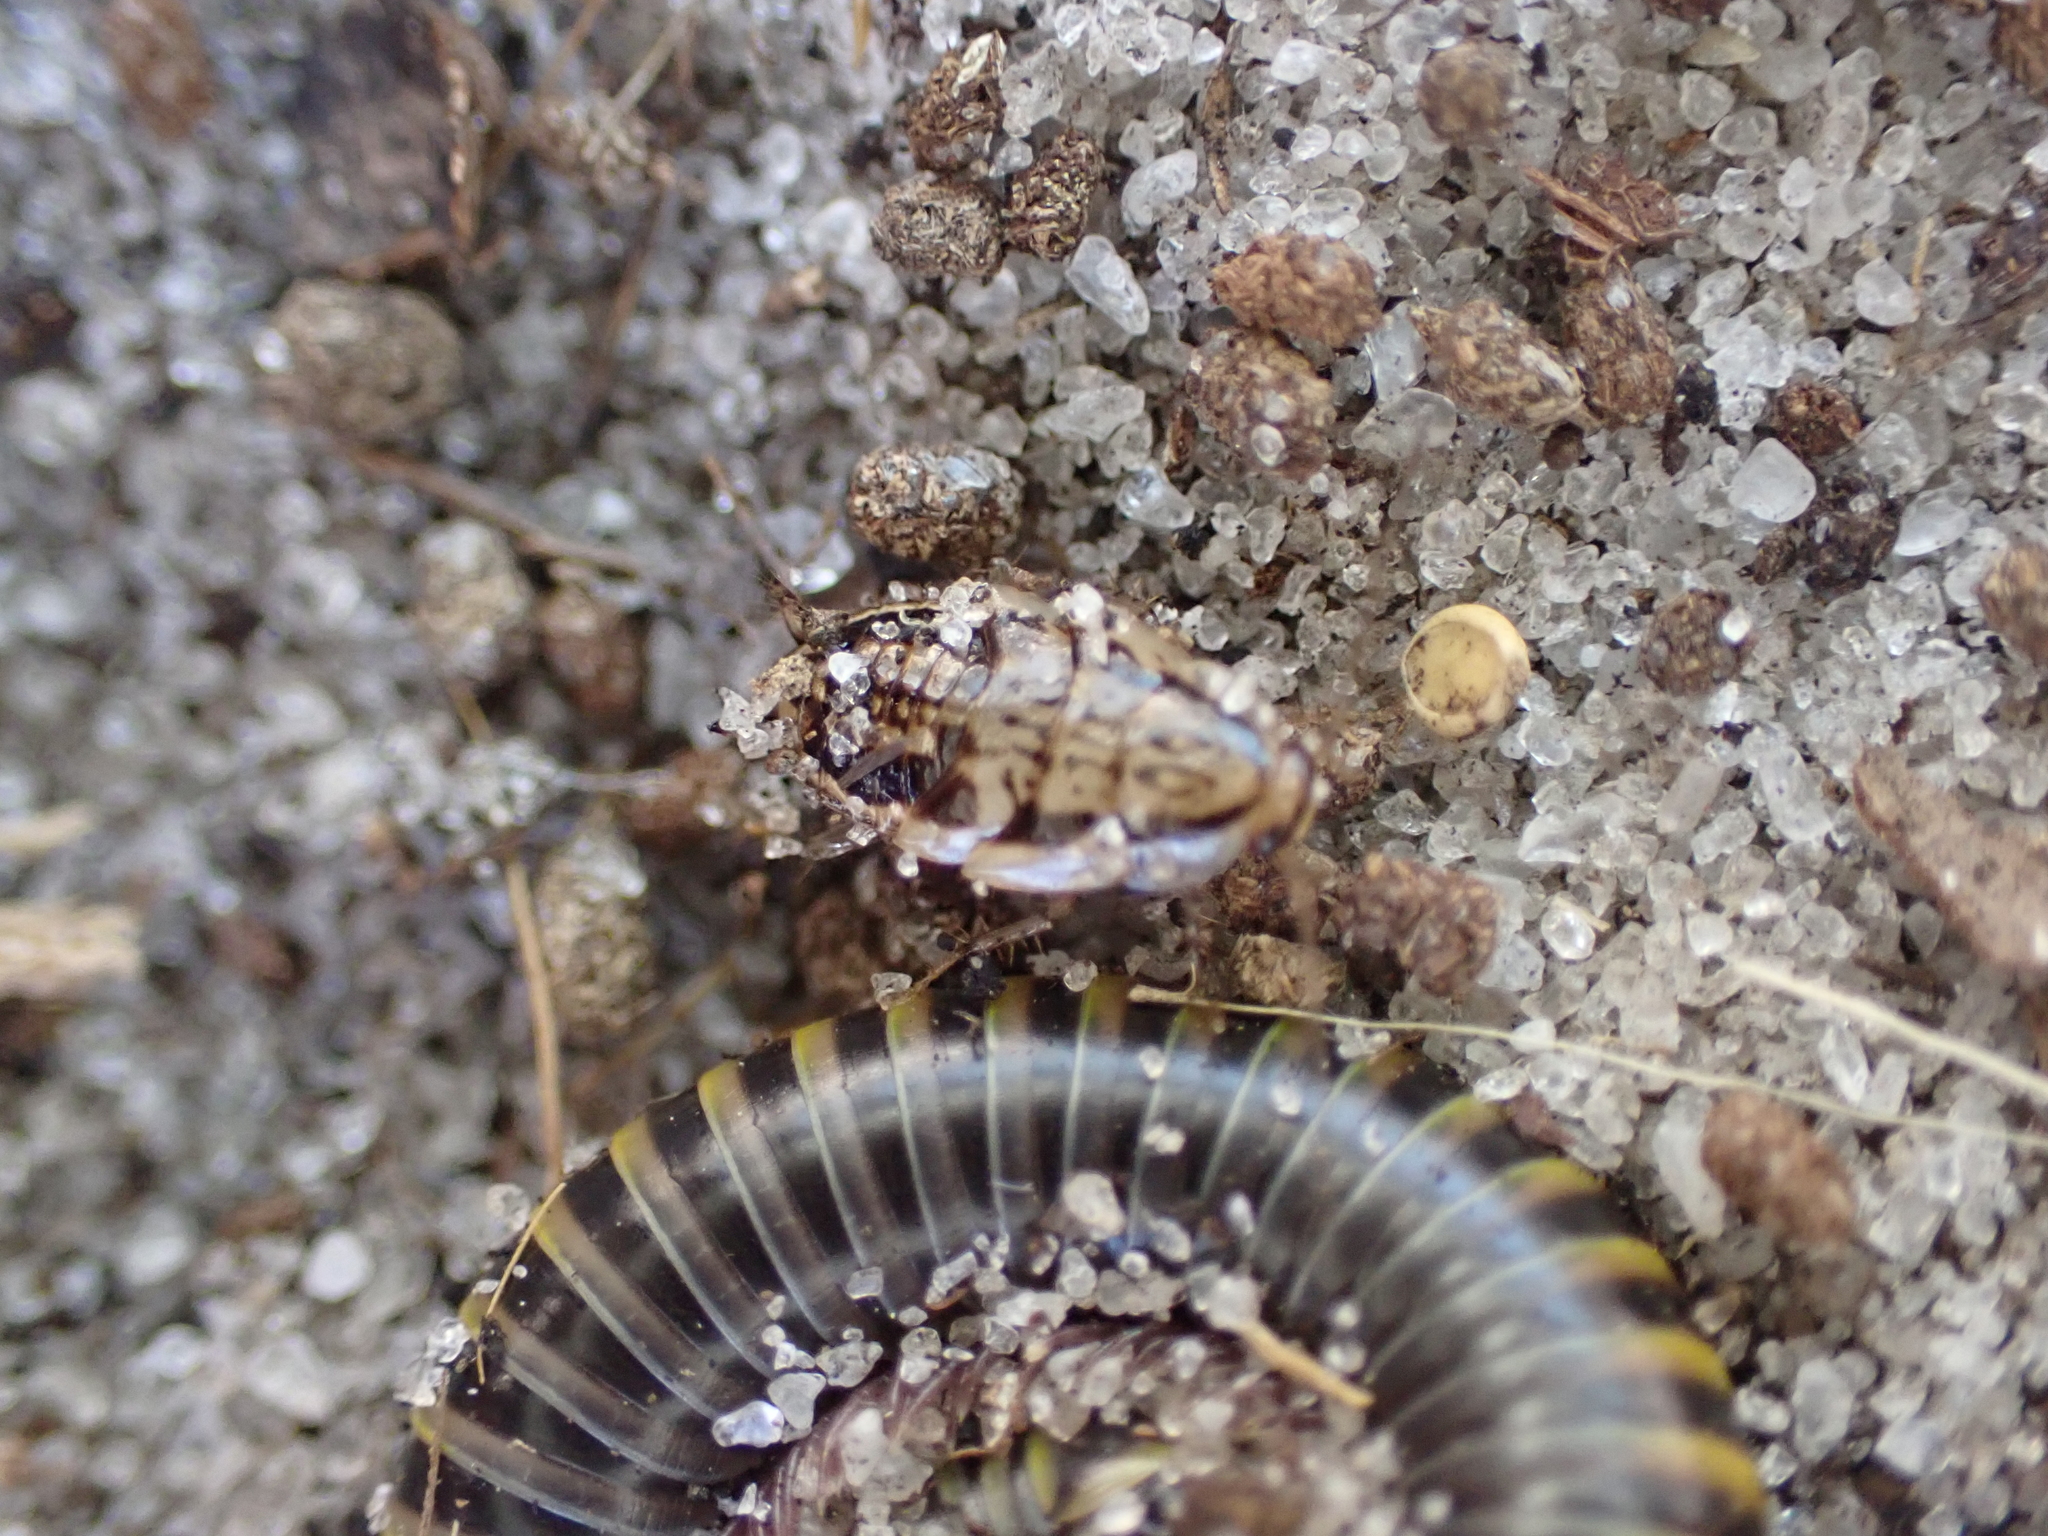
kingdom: Animalia
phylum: Arthropoda
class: Insecta
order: Blattodea
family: Ectobiidae
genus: Neoblattella
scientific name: Neoblattella detersa
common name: Wood cockroach
